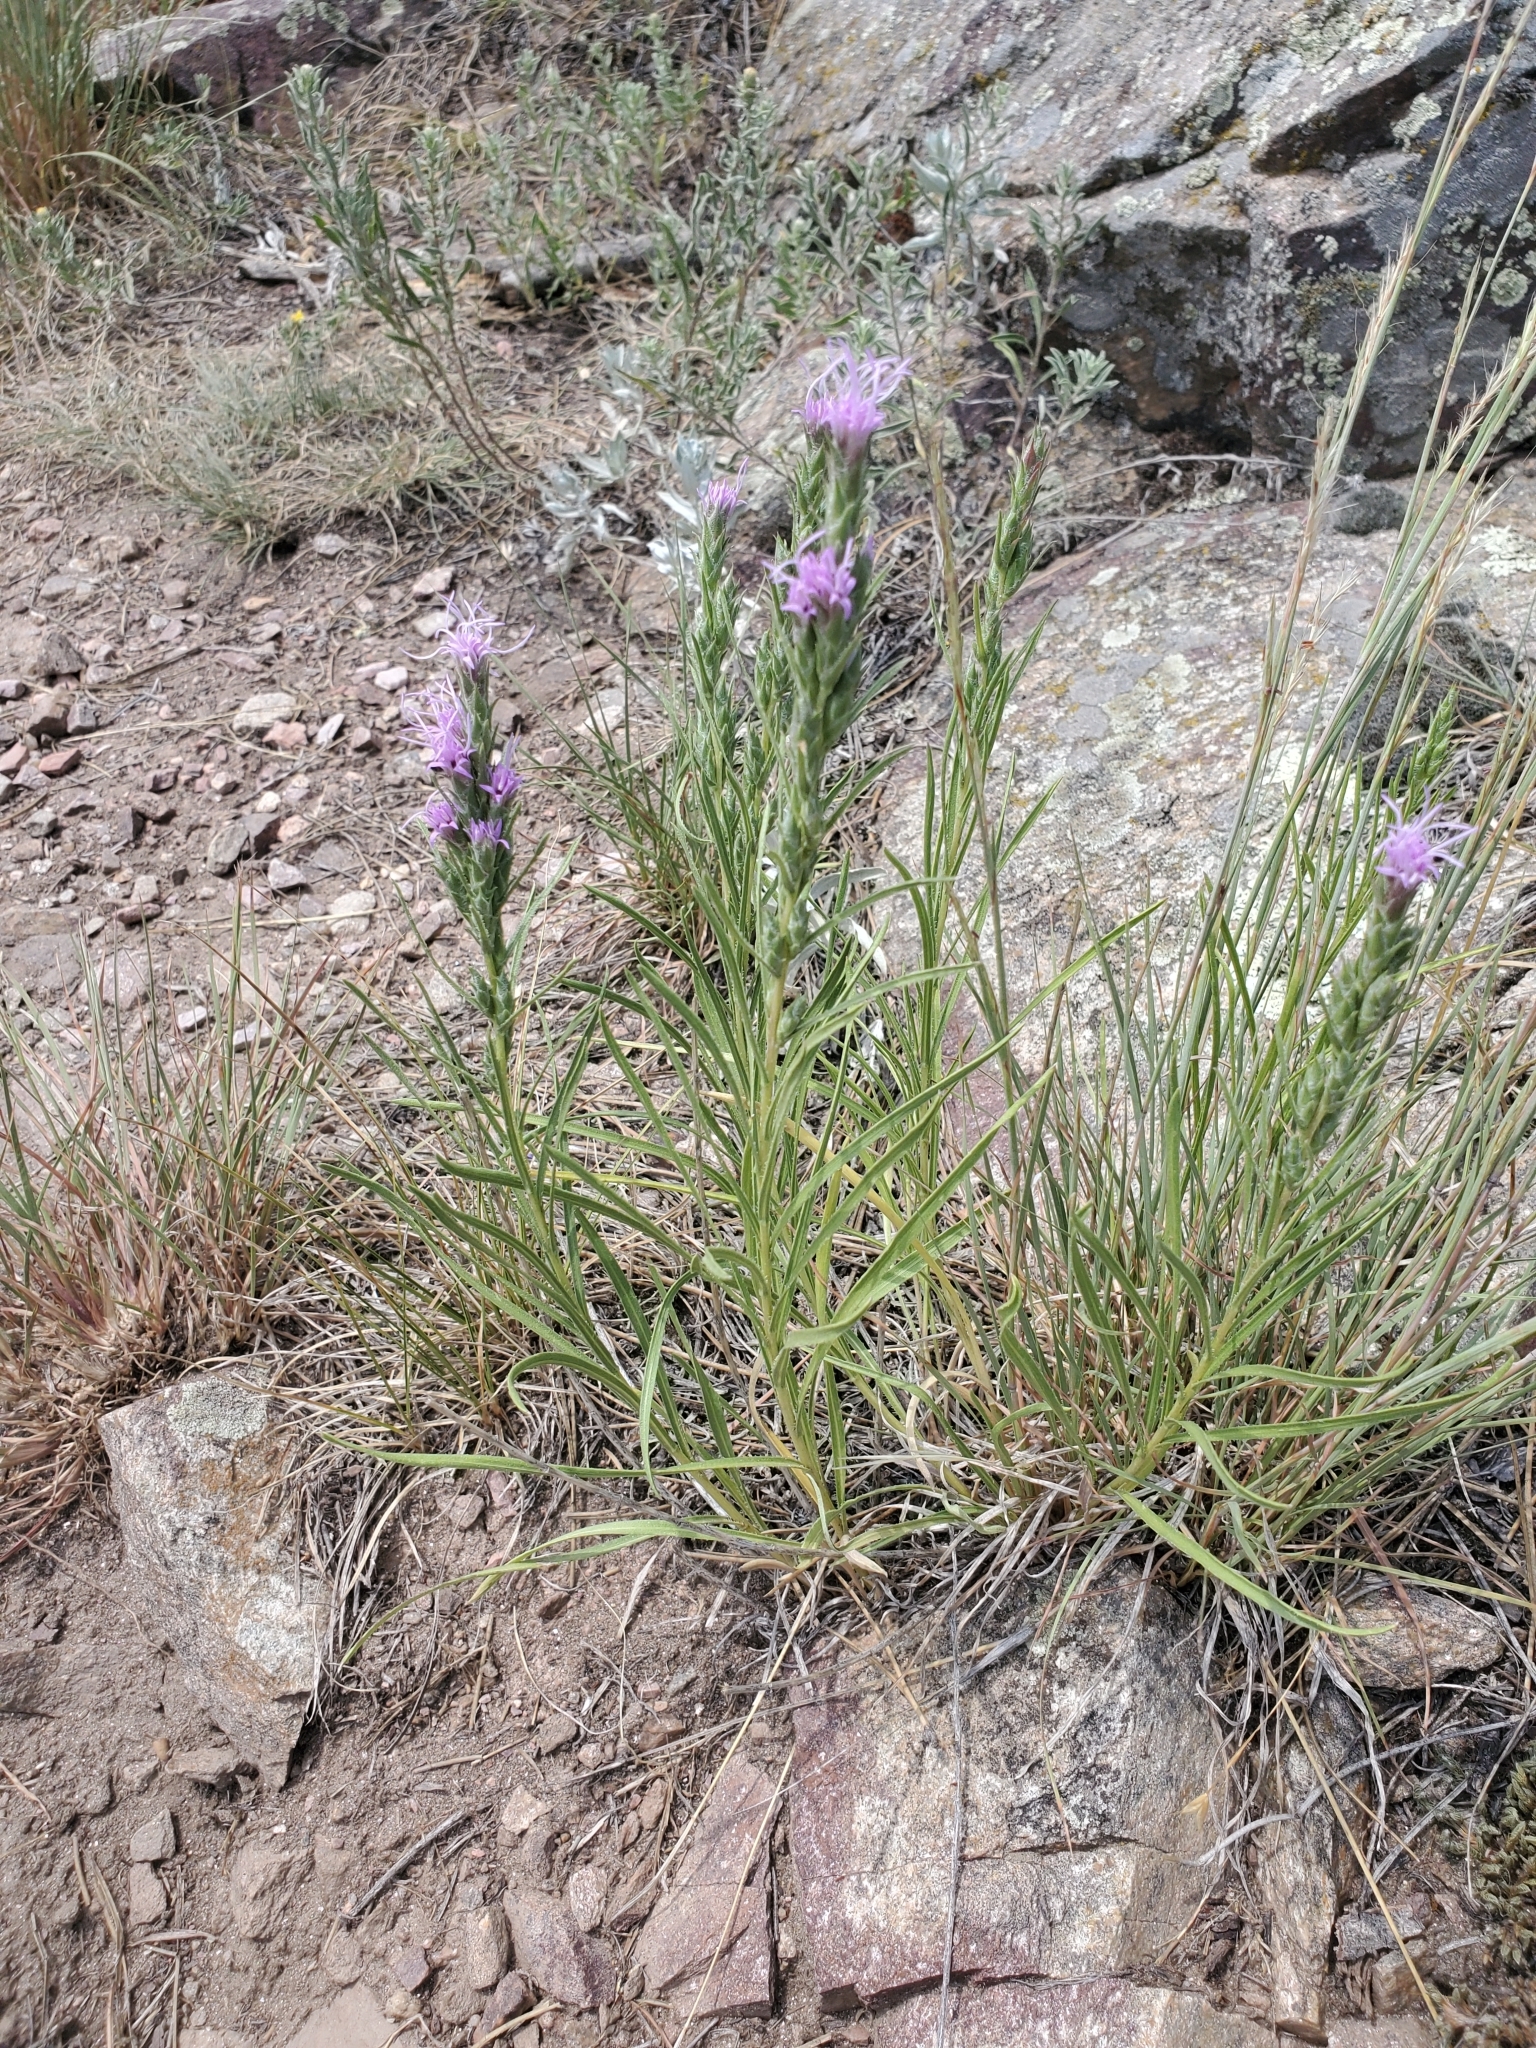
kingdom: Plantae
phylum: Tracheophyta
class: Magnoliopsida
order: Asterales
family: Asteraceae
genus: Liatris
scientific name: Liatris punctata
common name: Dotted gayfeather
